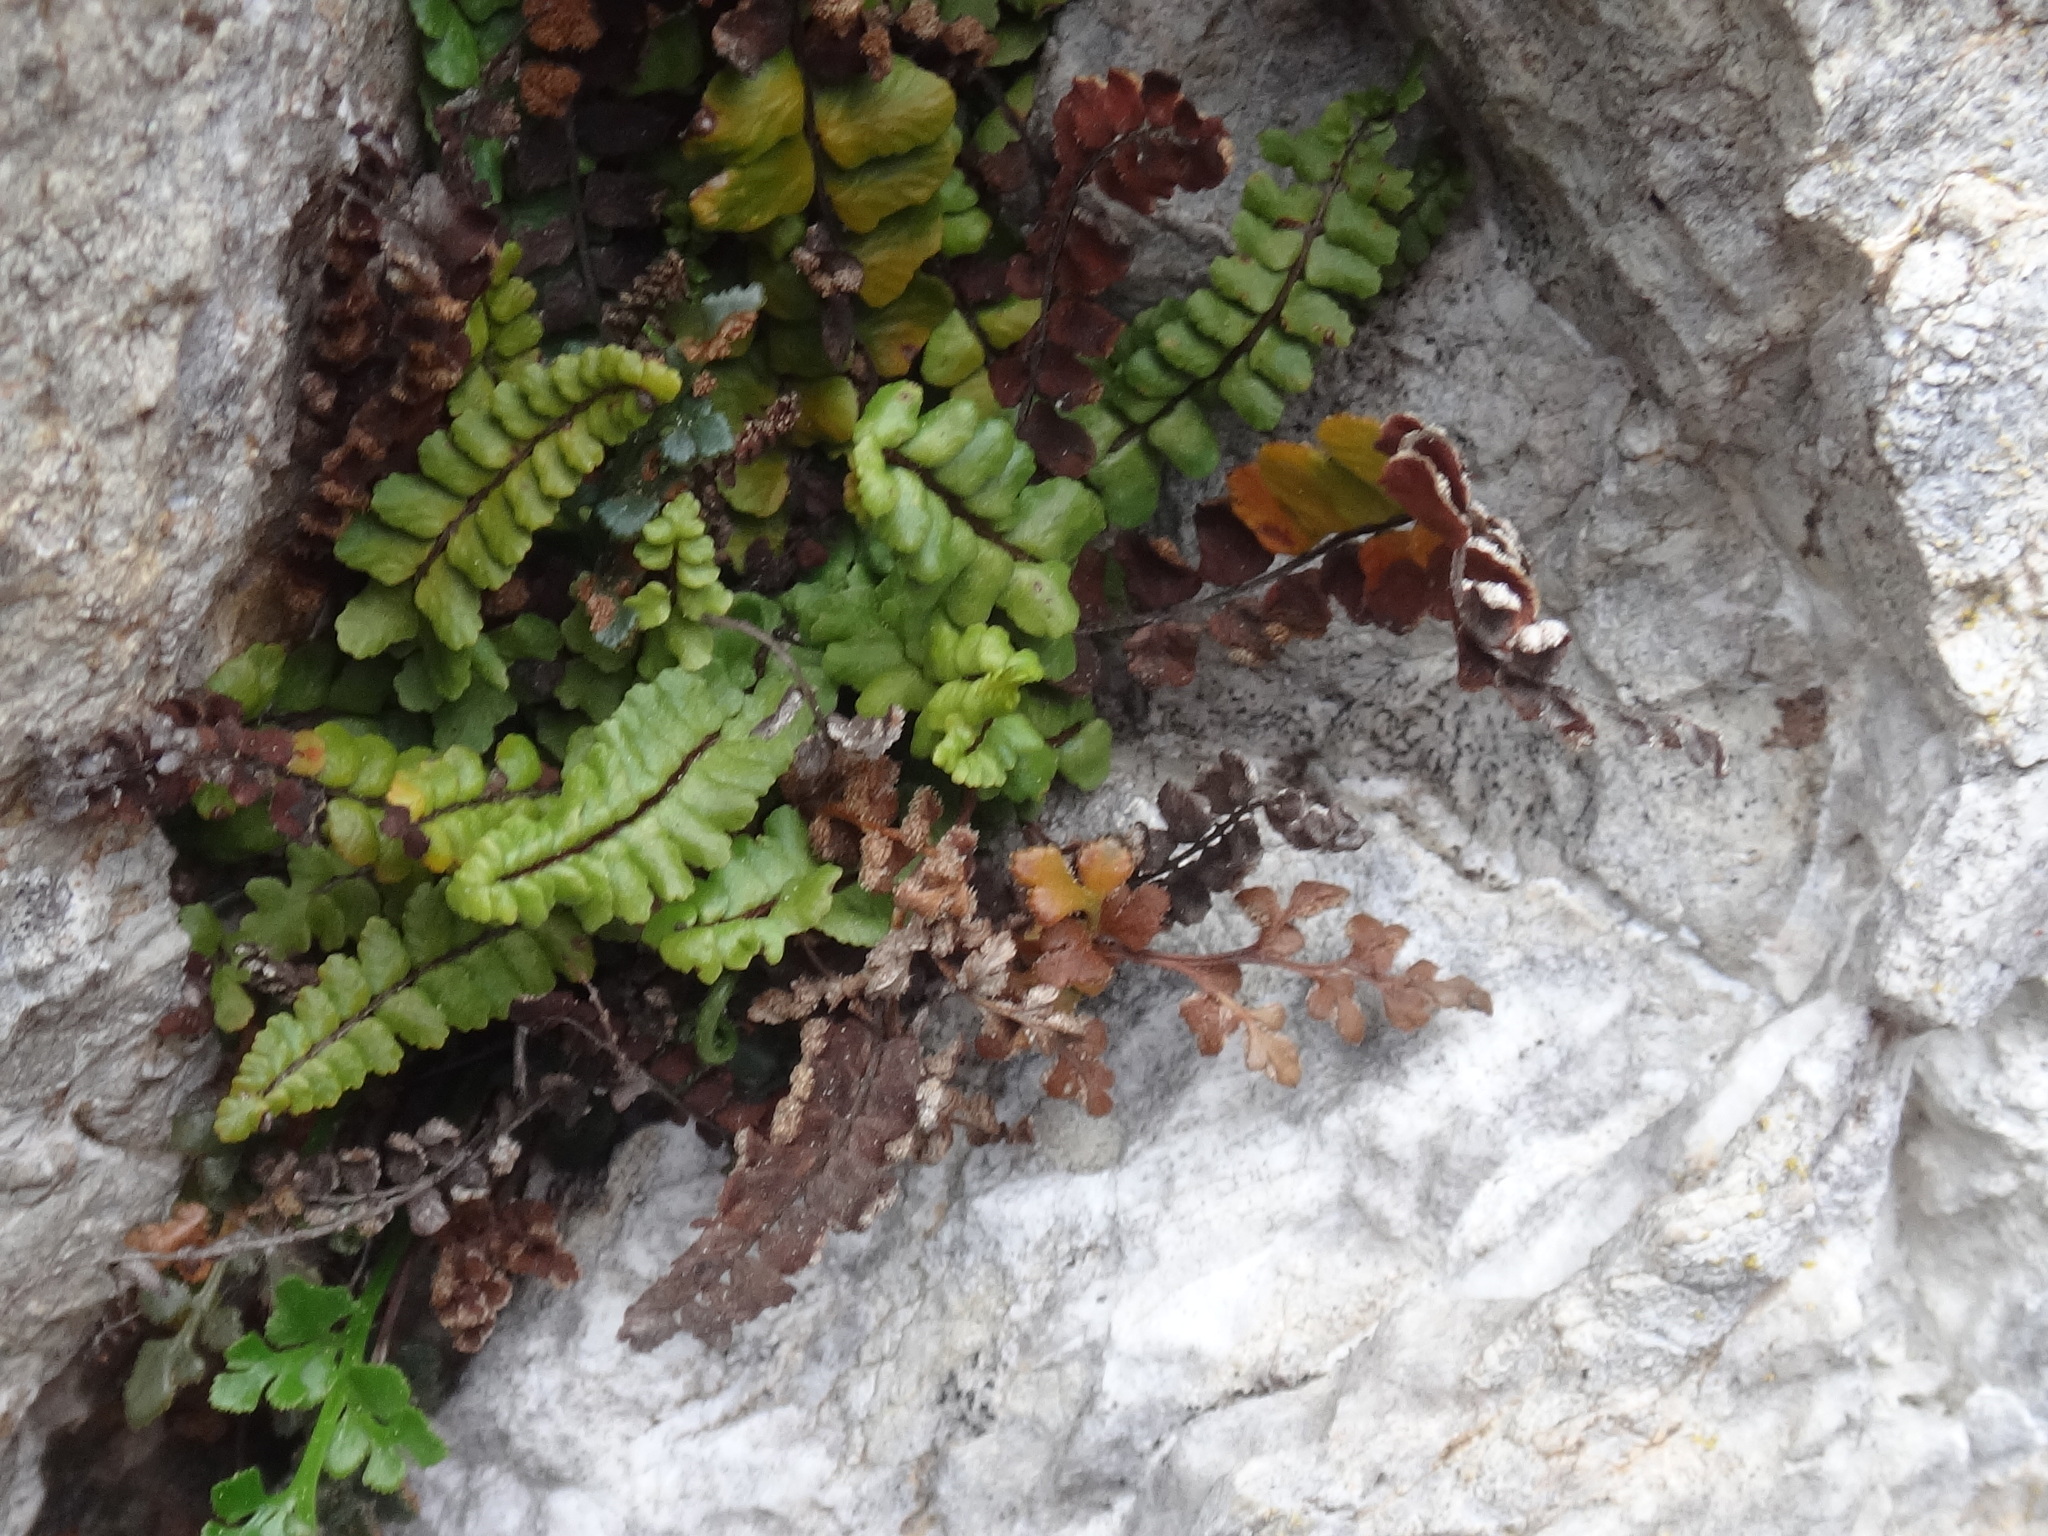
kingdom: Plantae
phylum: Tracheophyta
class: Polypodiopsida
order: Polypodiales
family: Aspleniaceae
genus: Asplenium
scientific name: Asplenium trichomanes
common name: Maidenhair spleenwort
